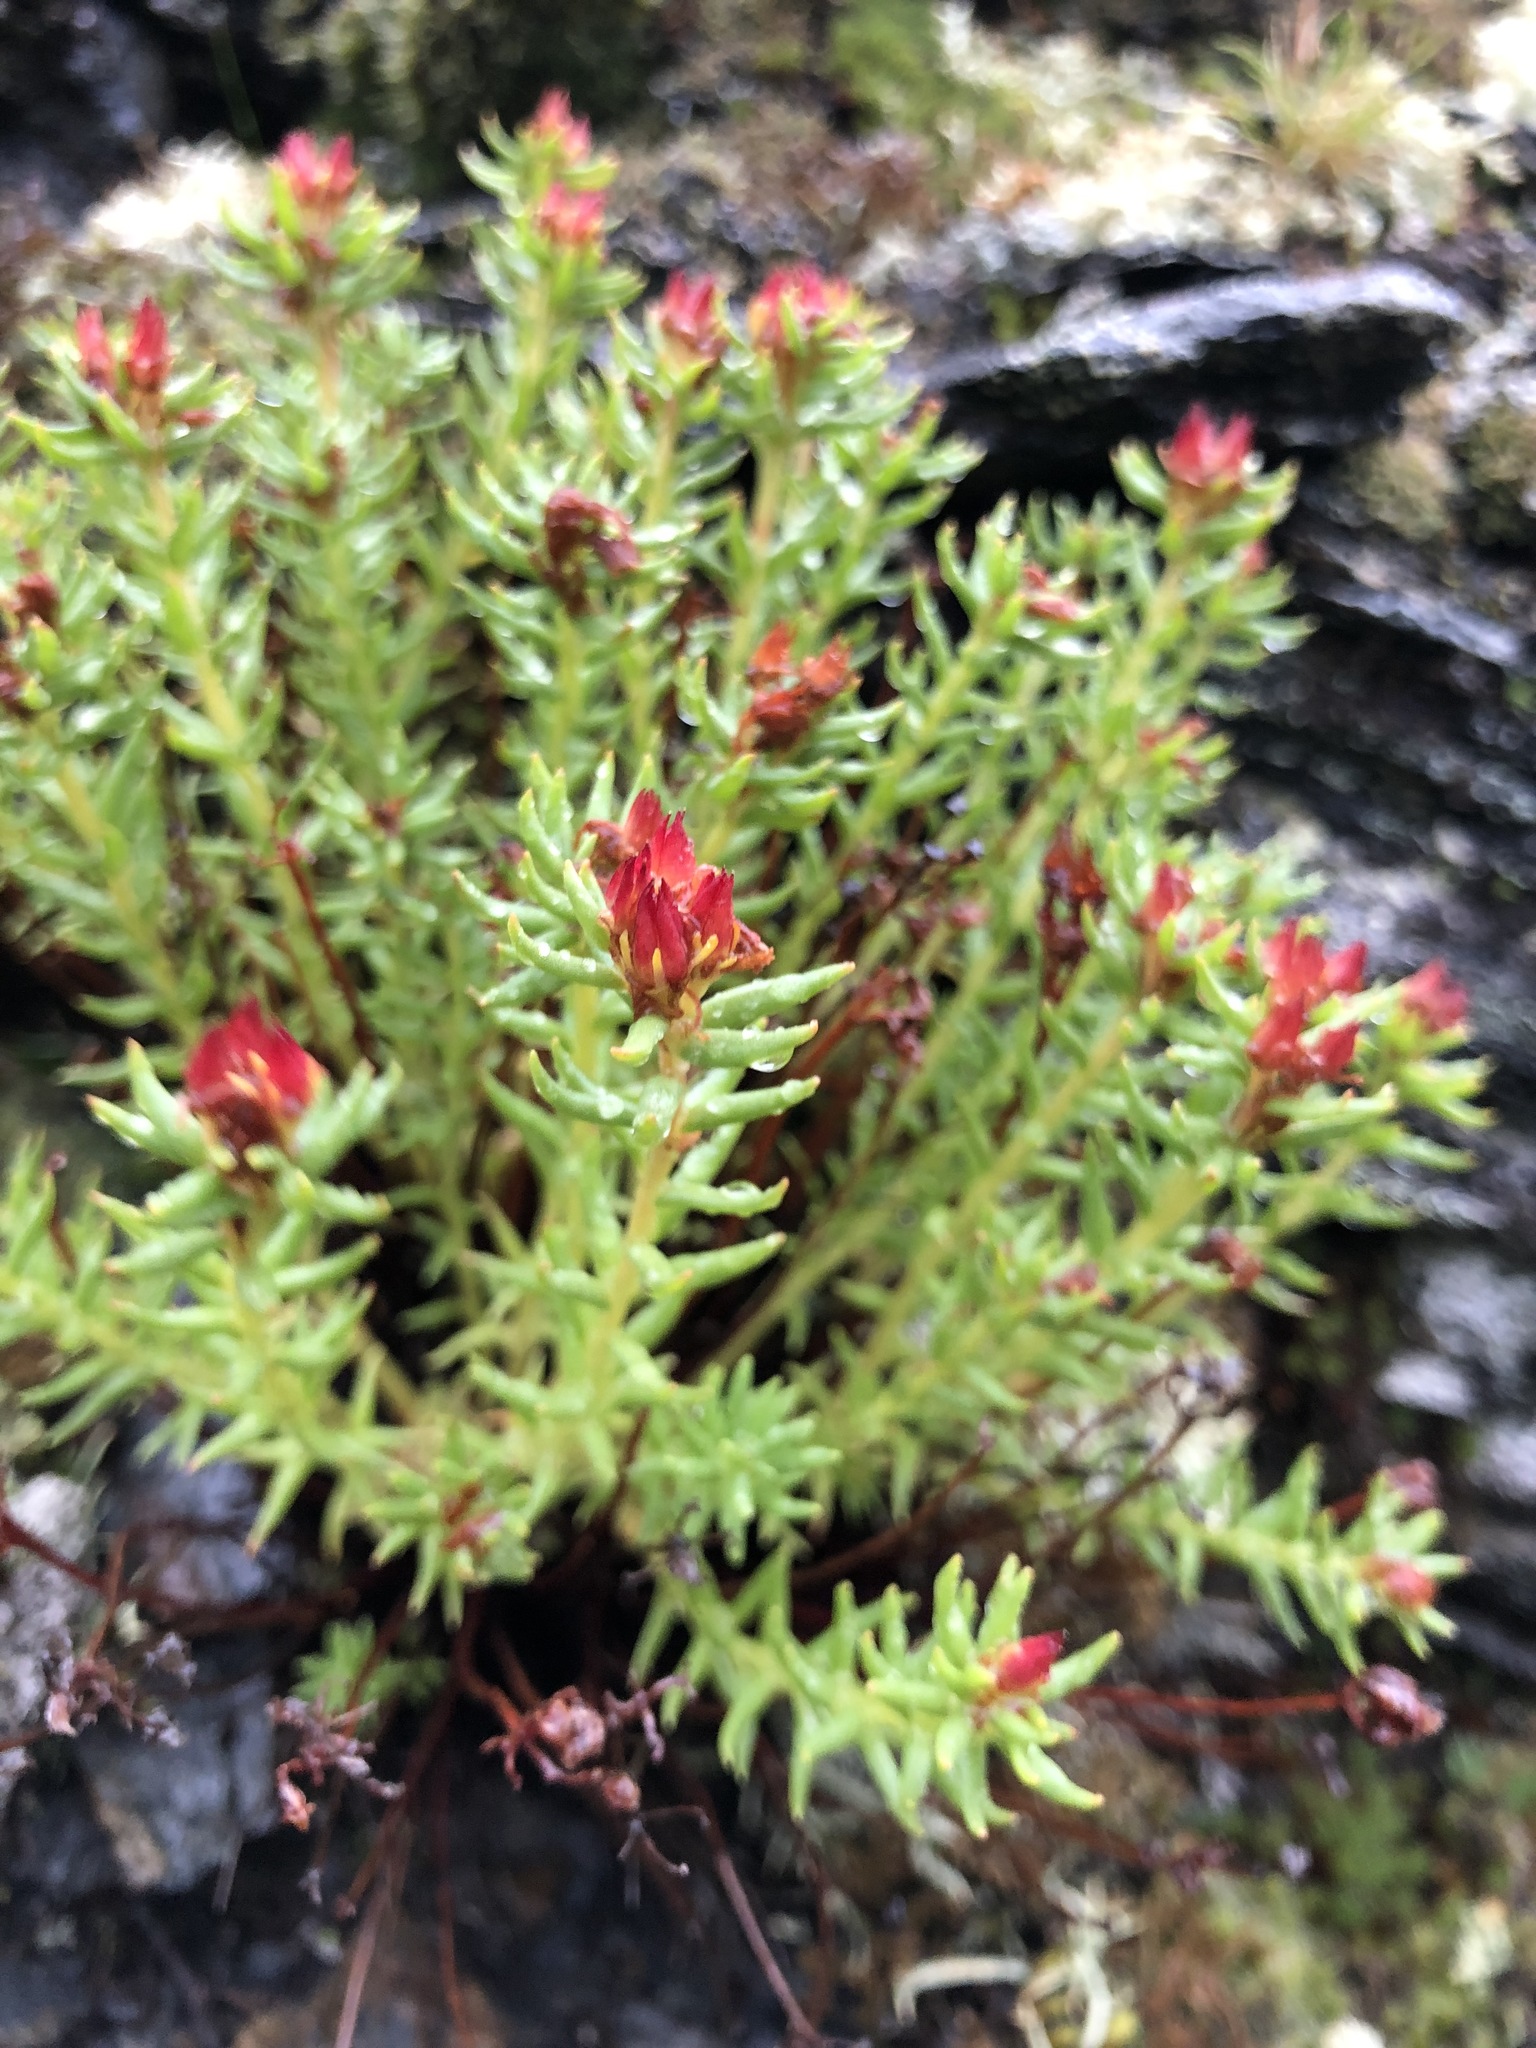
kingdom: Plantae
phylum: Tracheophyta
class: Magnoliopsida
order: Saxifragales
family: Crassulaceae
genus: Rhodiola
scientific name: Rhodiola quadrifida
